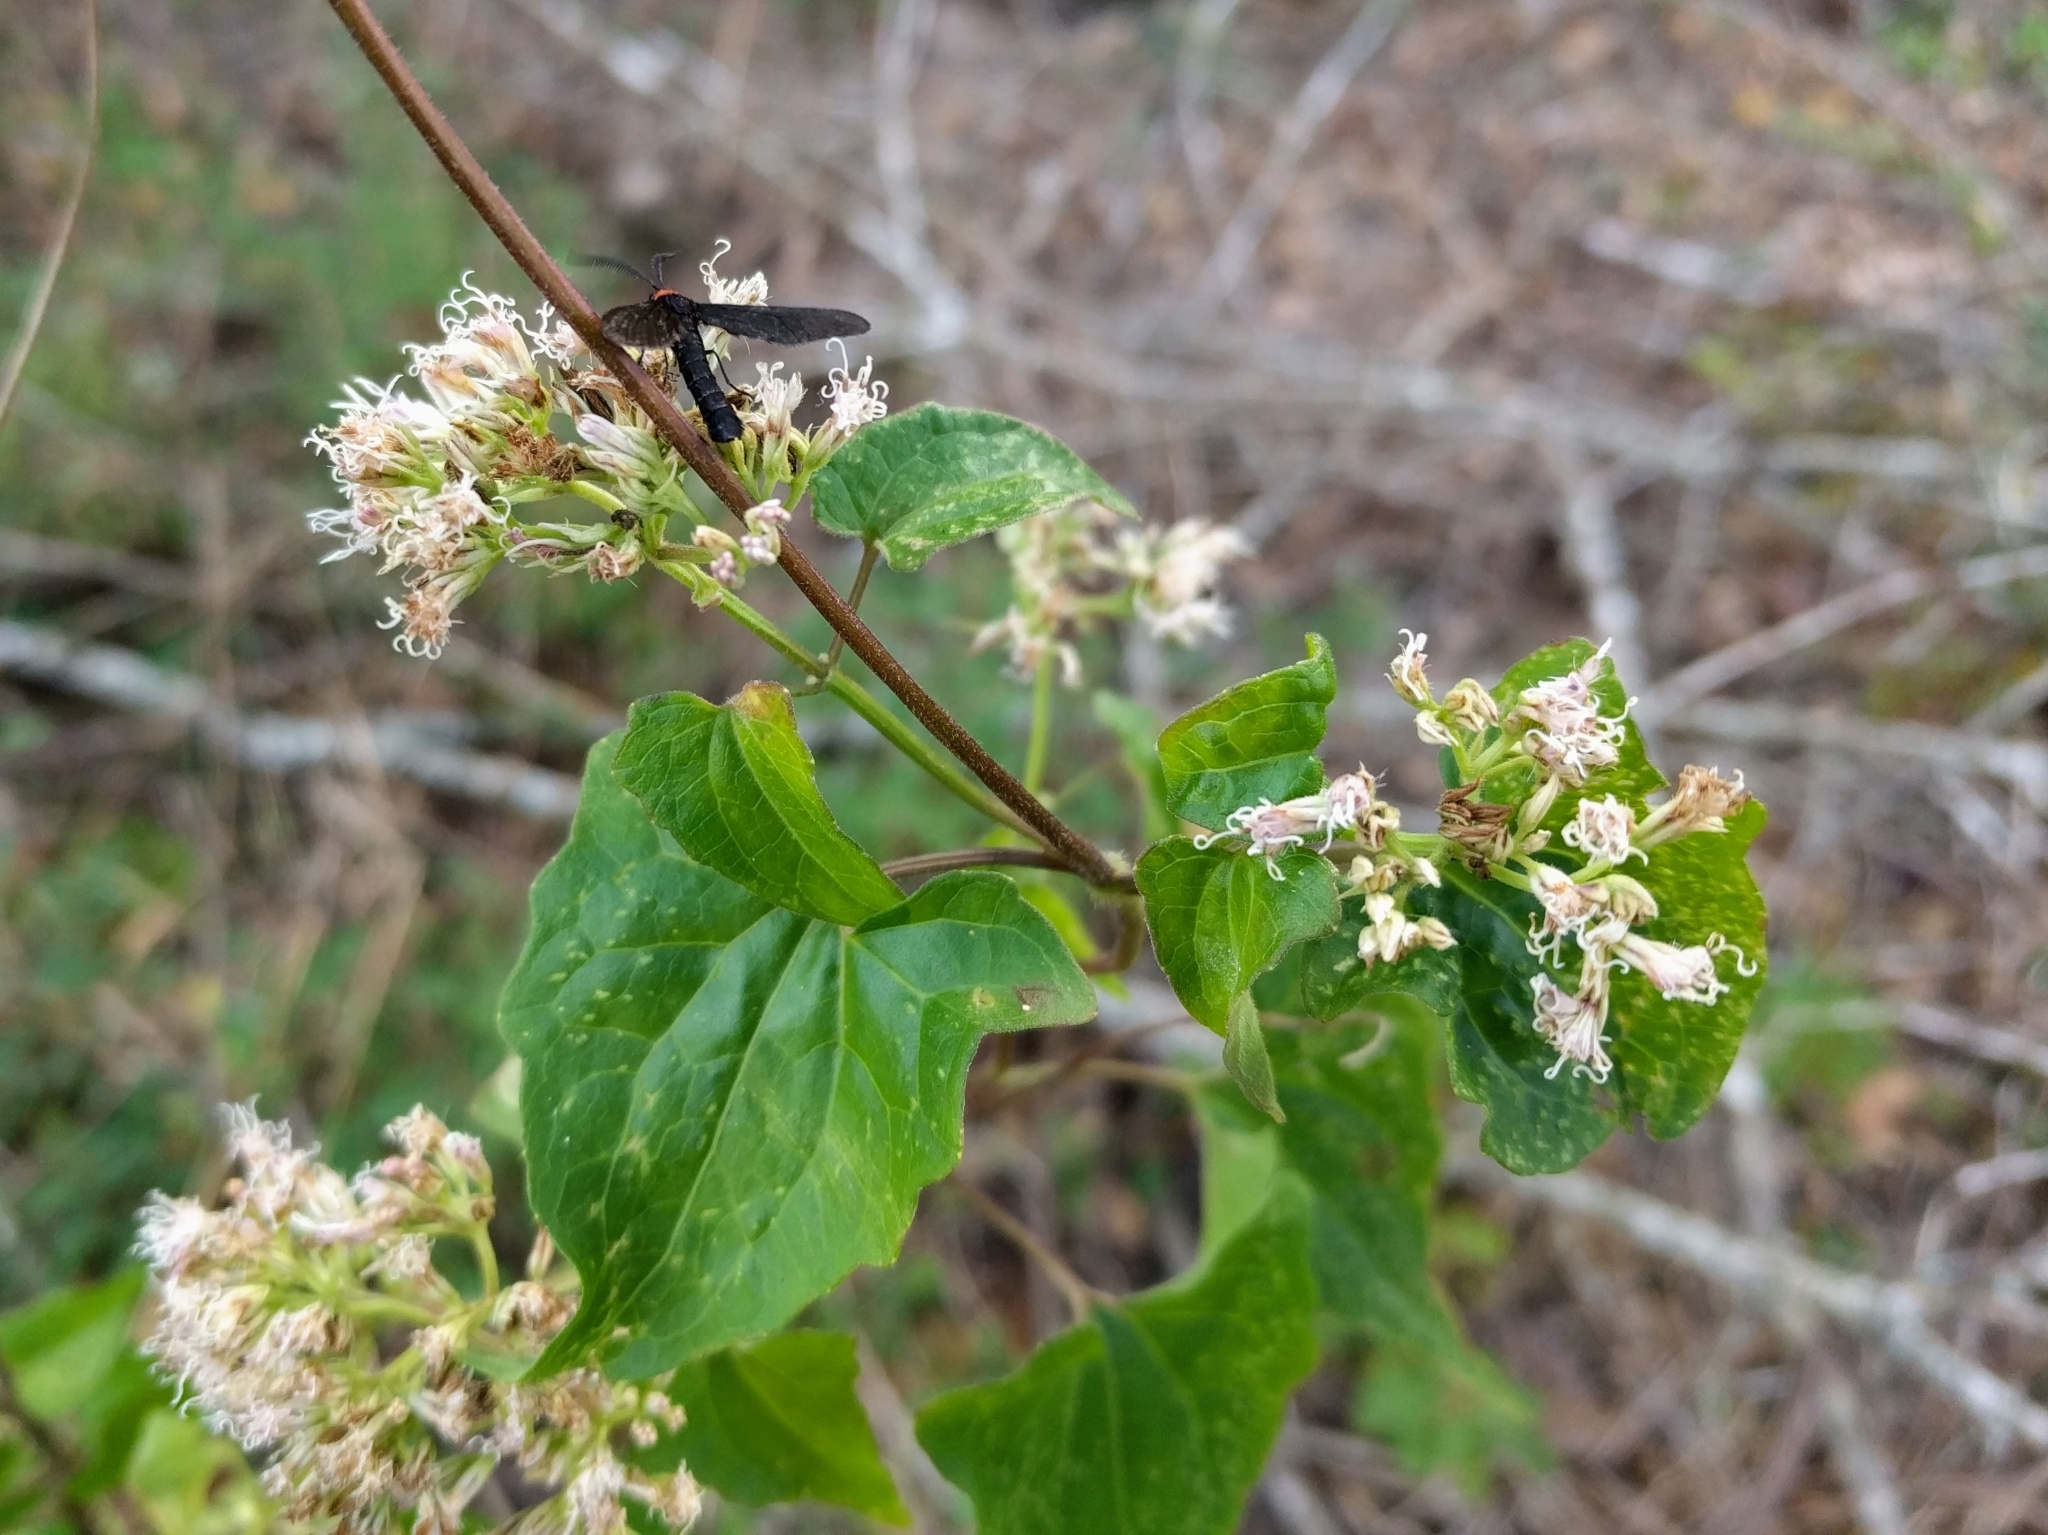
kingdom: Plantae
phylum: Tracheophyta
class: Magnoliopsida
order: Asterales
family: Asteraceae
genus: Mikania
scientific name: Mikania scandens
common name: Climbing hempvine
